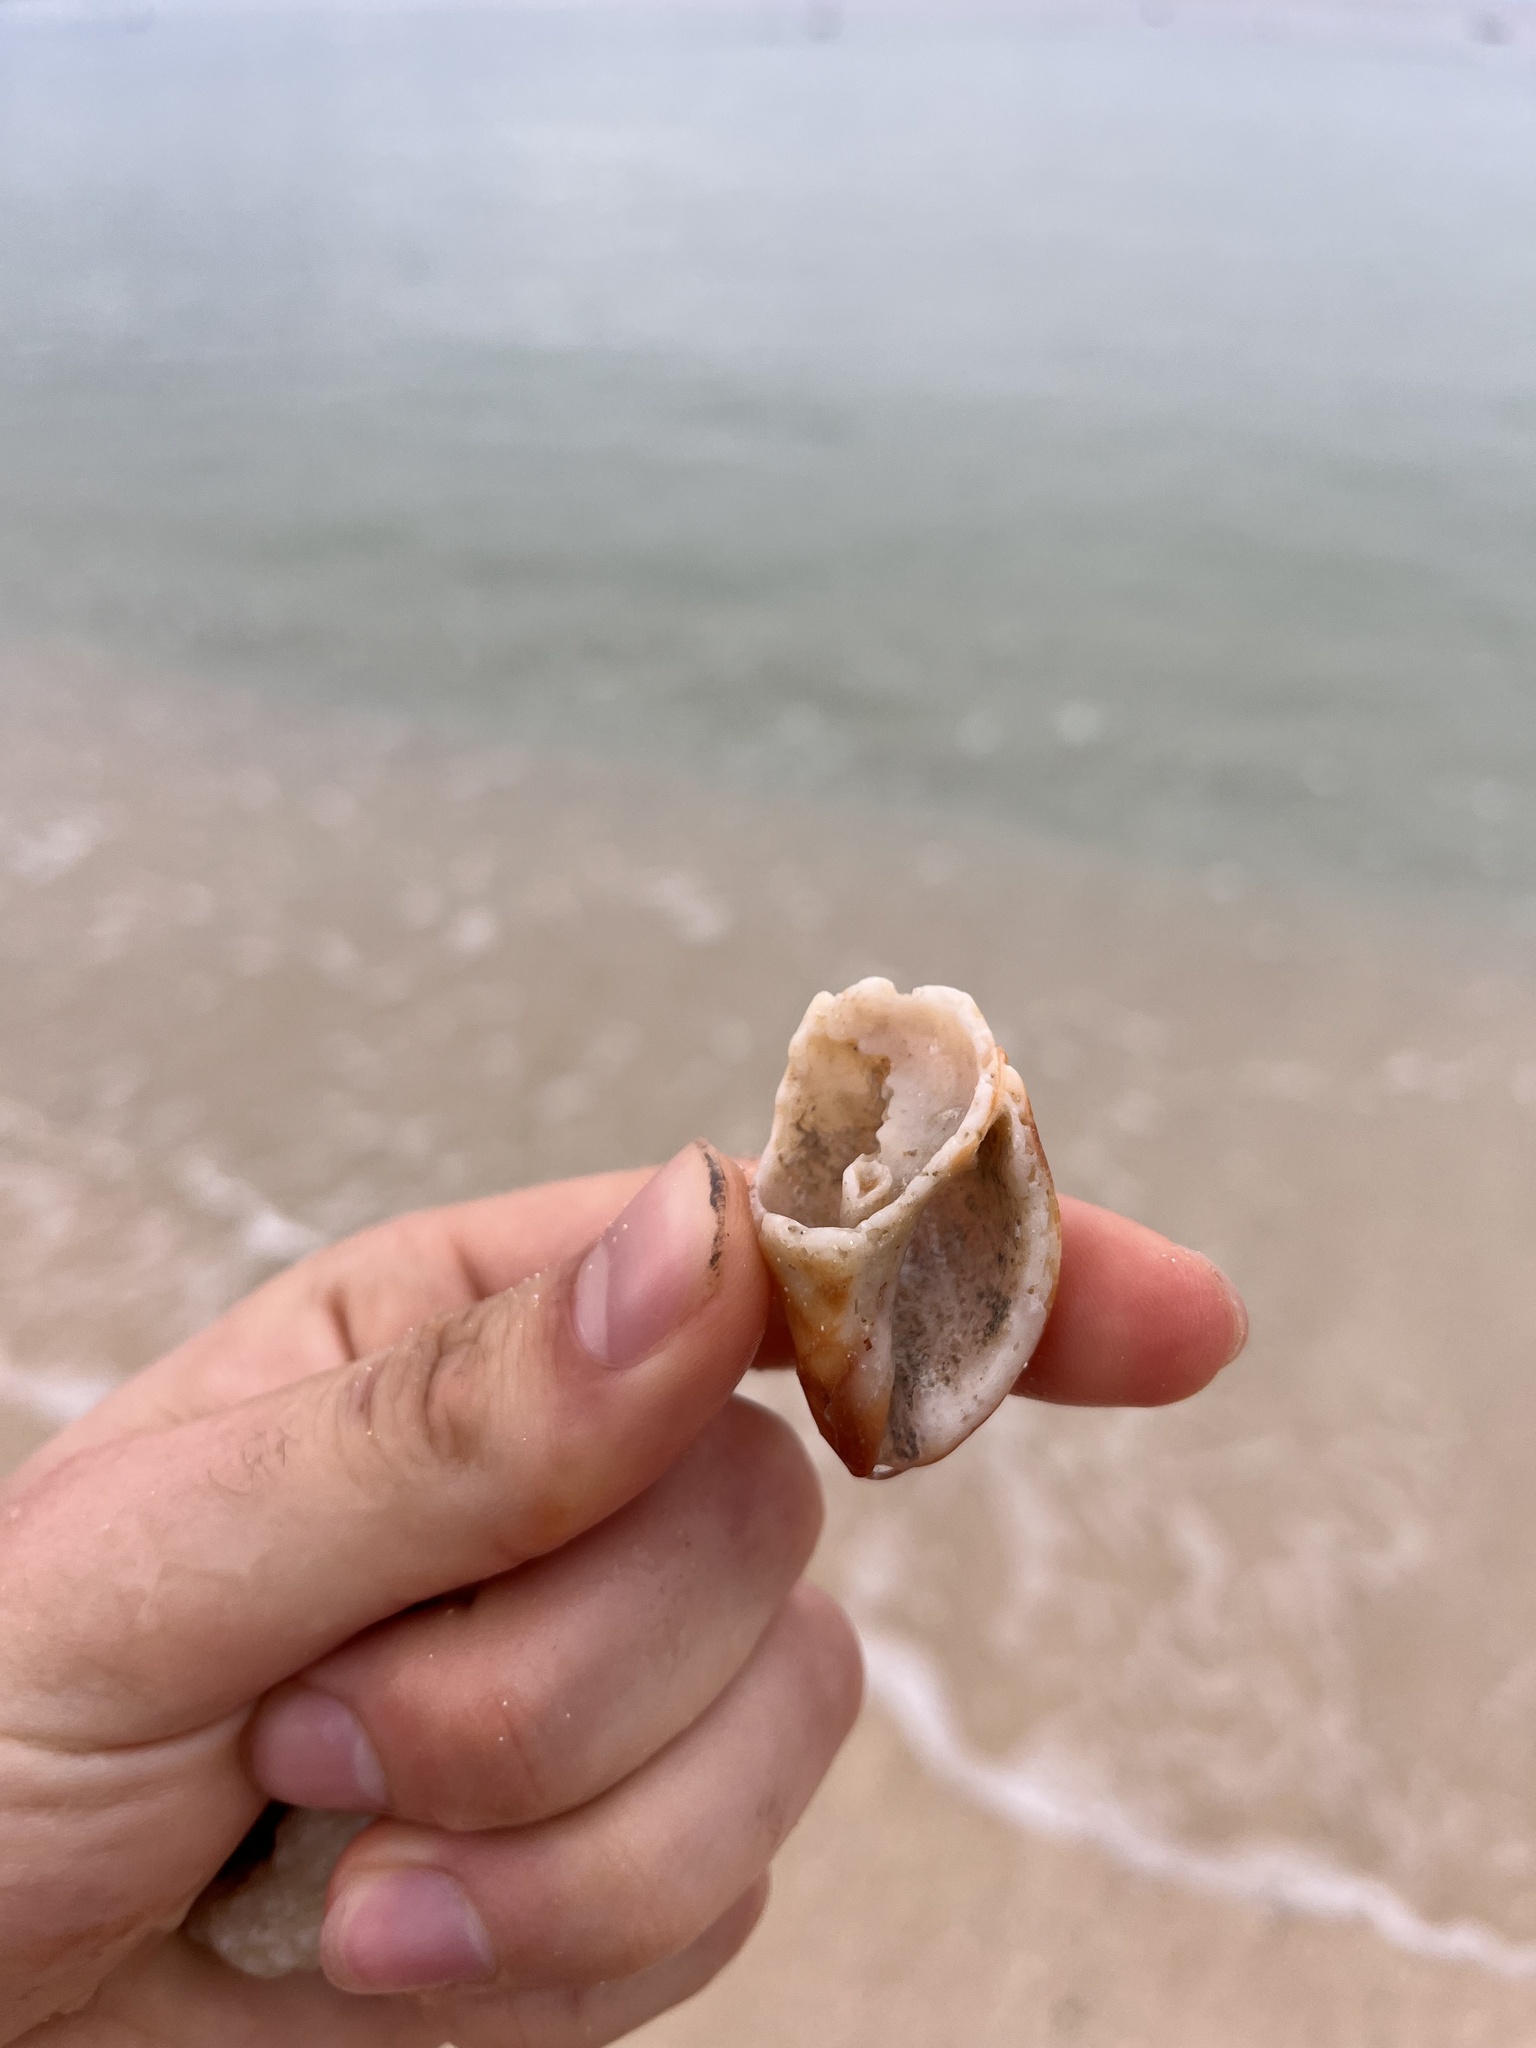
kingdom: Animalia
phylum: Mollusca
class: Gastropoda
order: Neogastropoda
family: Muricidae
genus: Nassa
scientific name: Nassa serta
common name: Sertum rock shell
